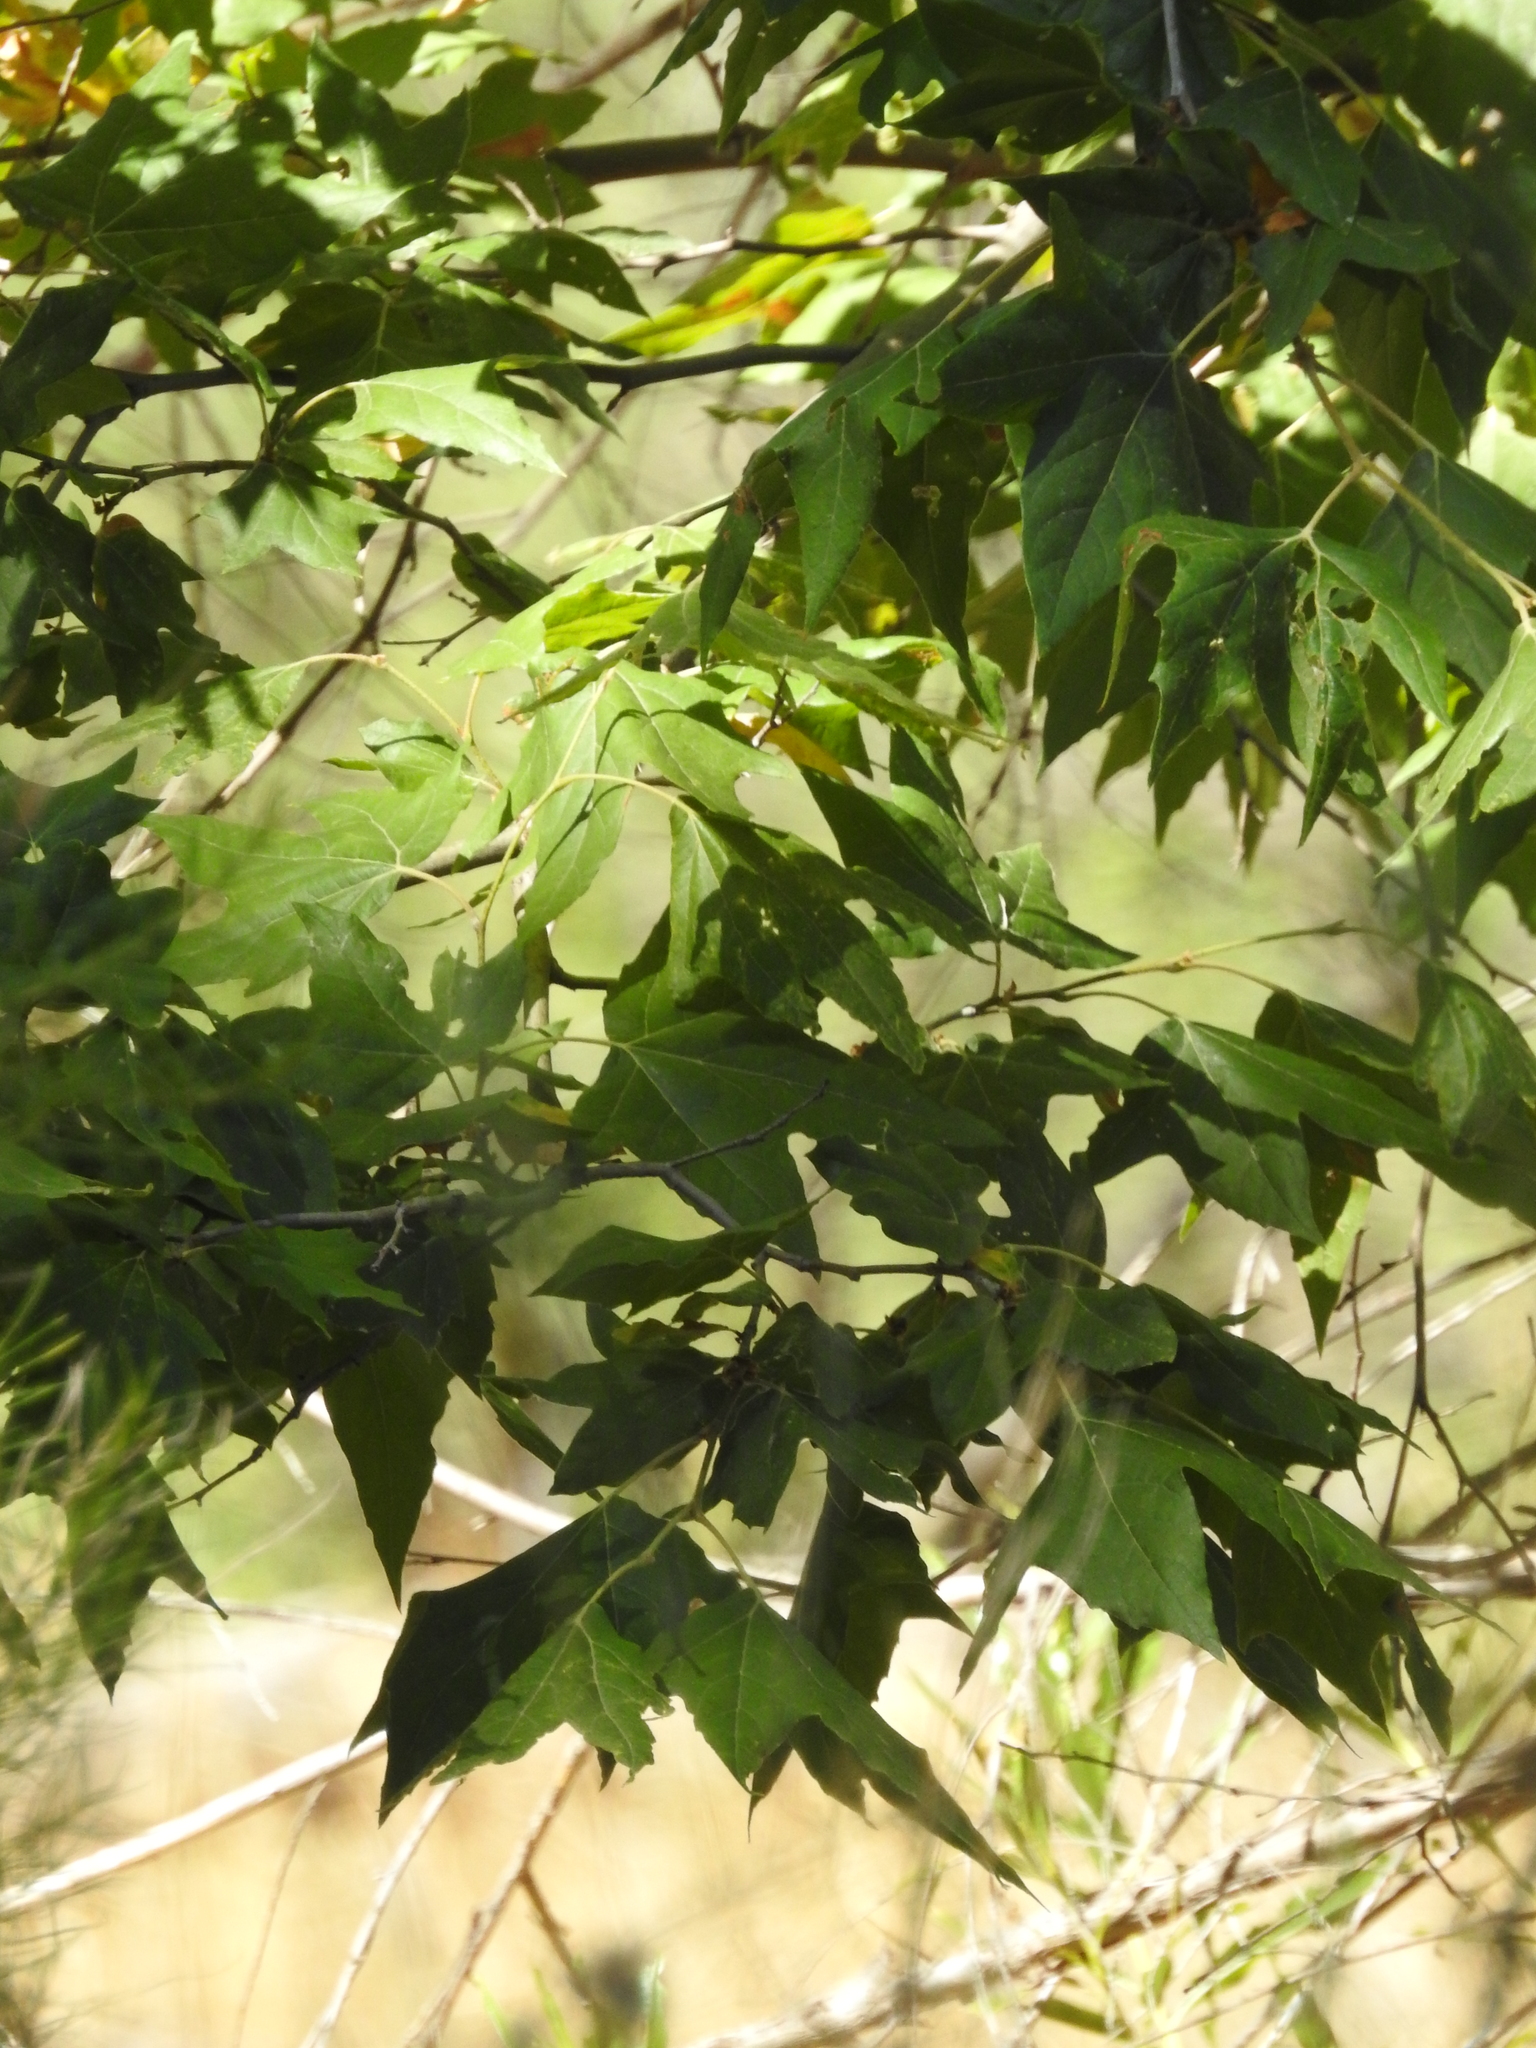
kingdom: Plantae
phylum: Tracheophyta
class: Magnoliopsida
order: Proteales
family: Platanaceae
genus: Platanus
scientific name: Platanus wrightii
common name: Arizona sycamore
